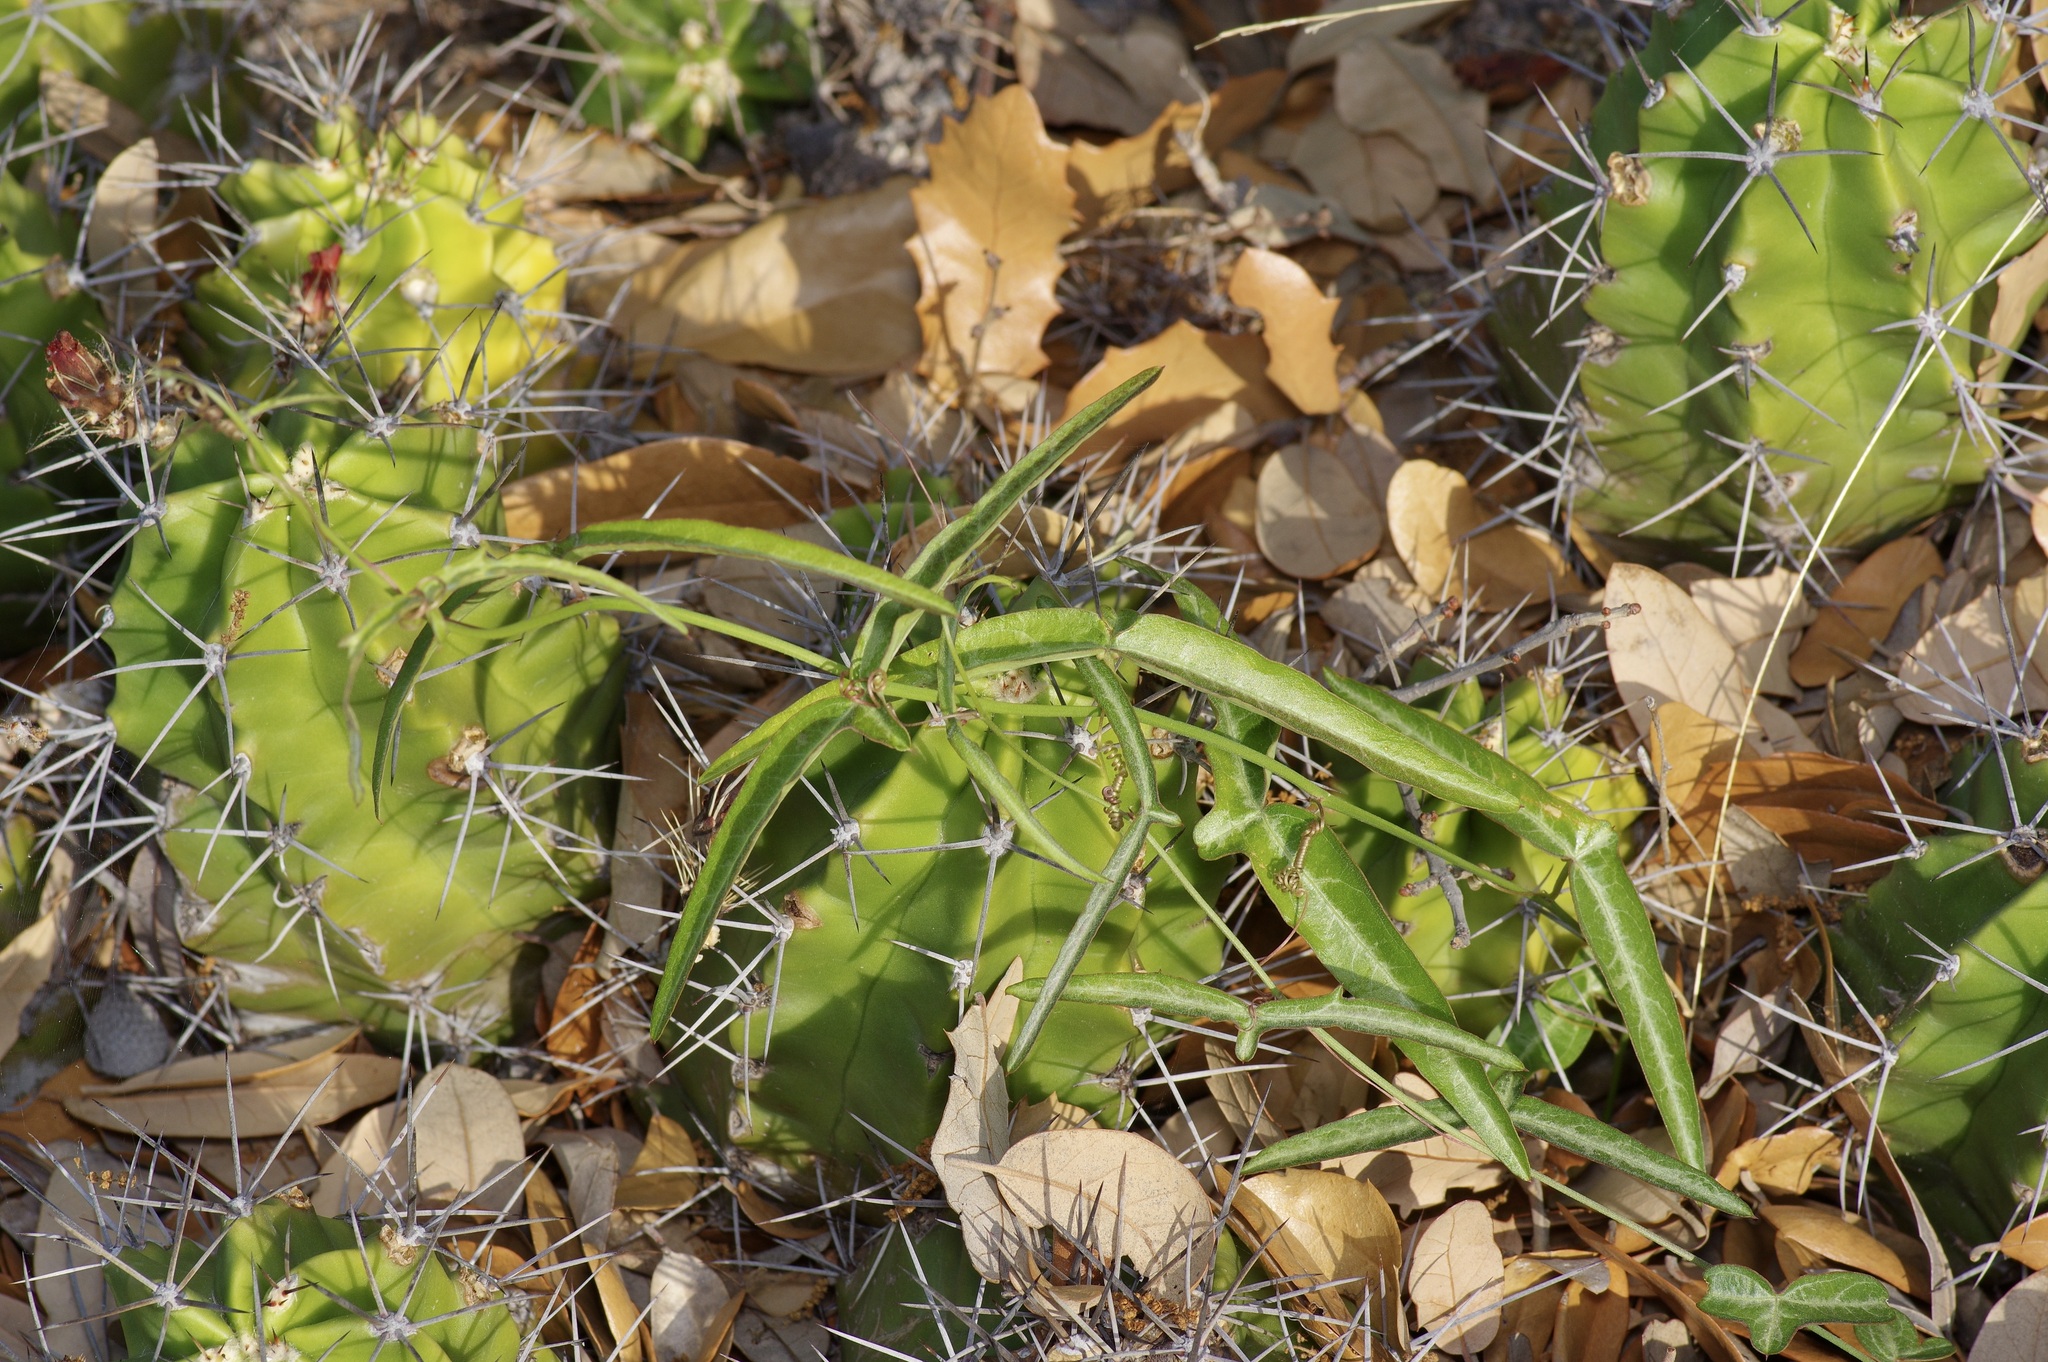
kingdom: Plantae
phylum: Tracheophyta
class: Magnoliopsida
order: Malpighiales
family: Passifloraceae
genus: Passiflora
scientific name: Passiflora tenuiloba
